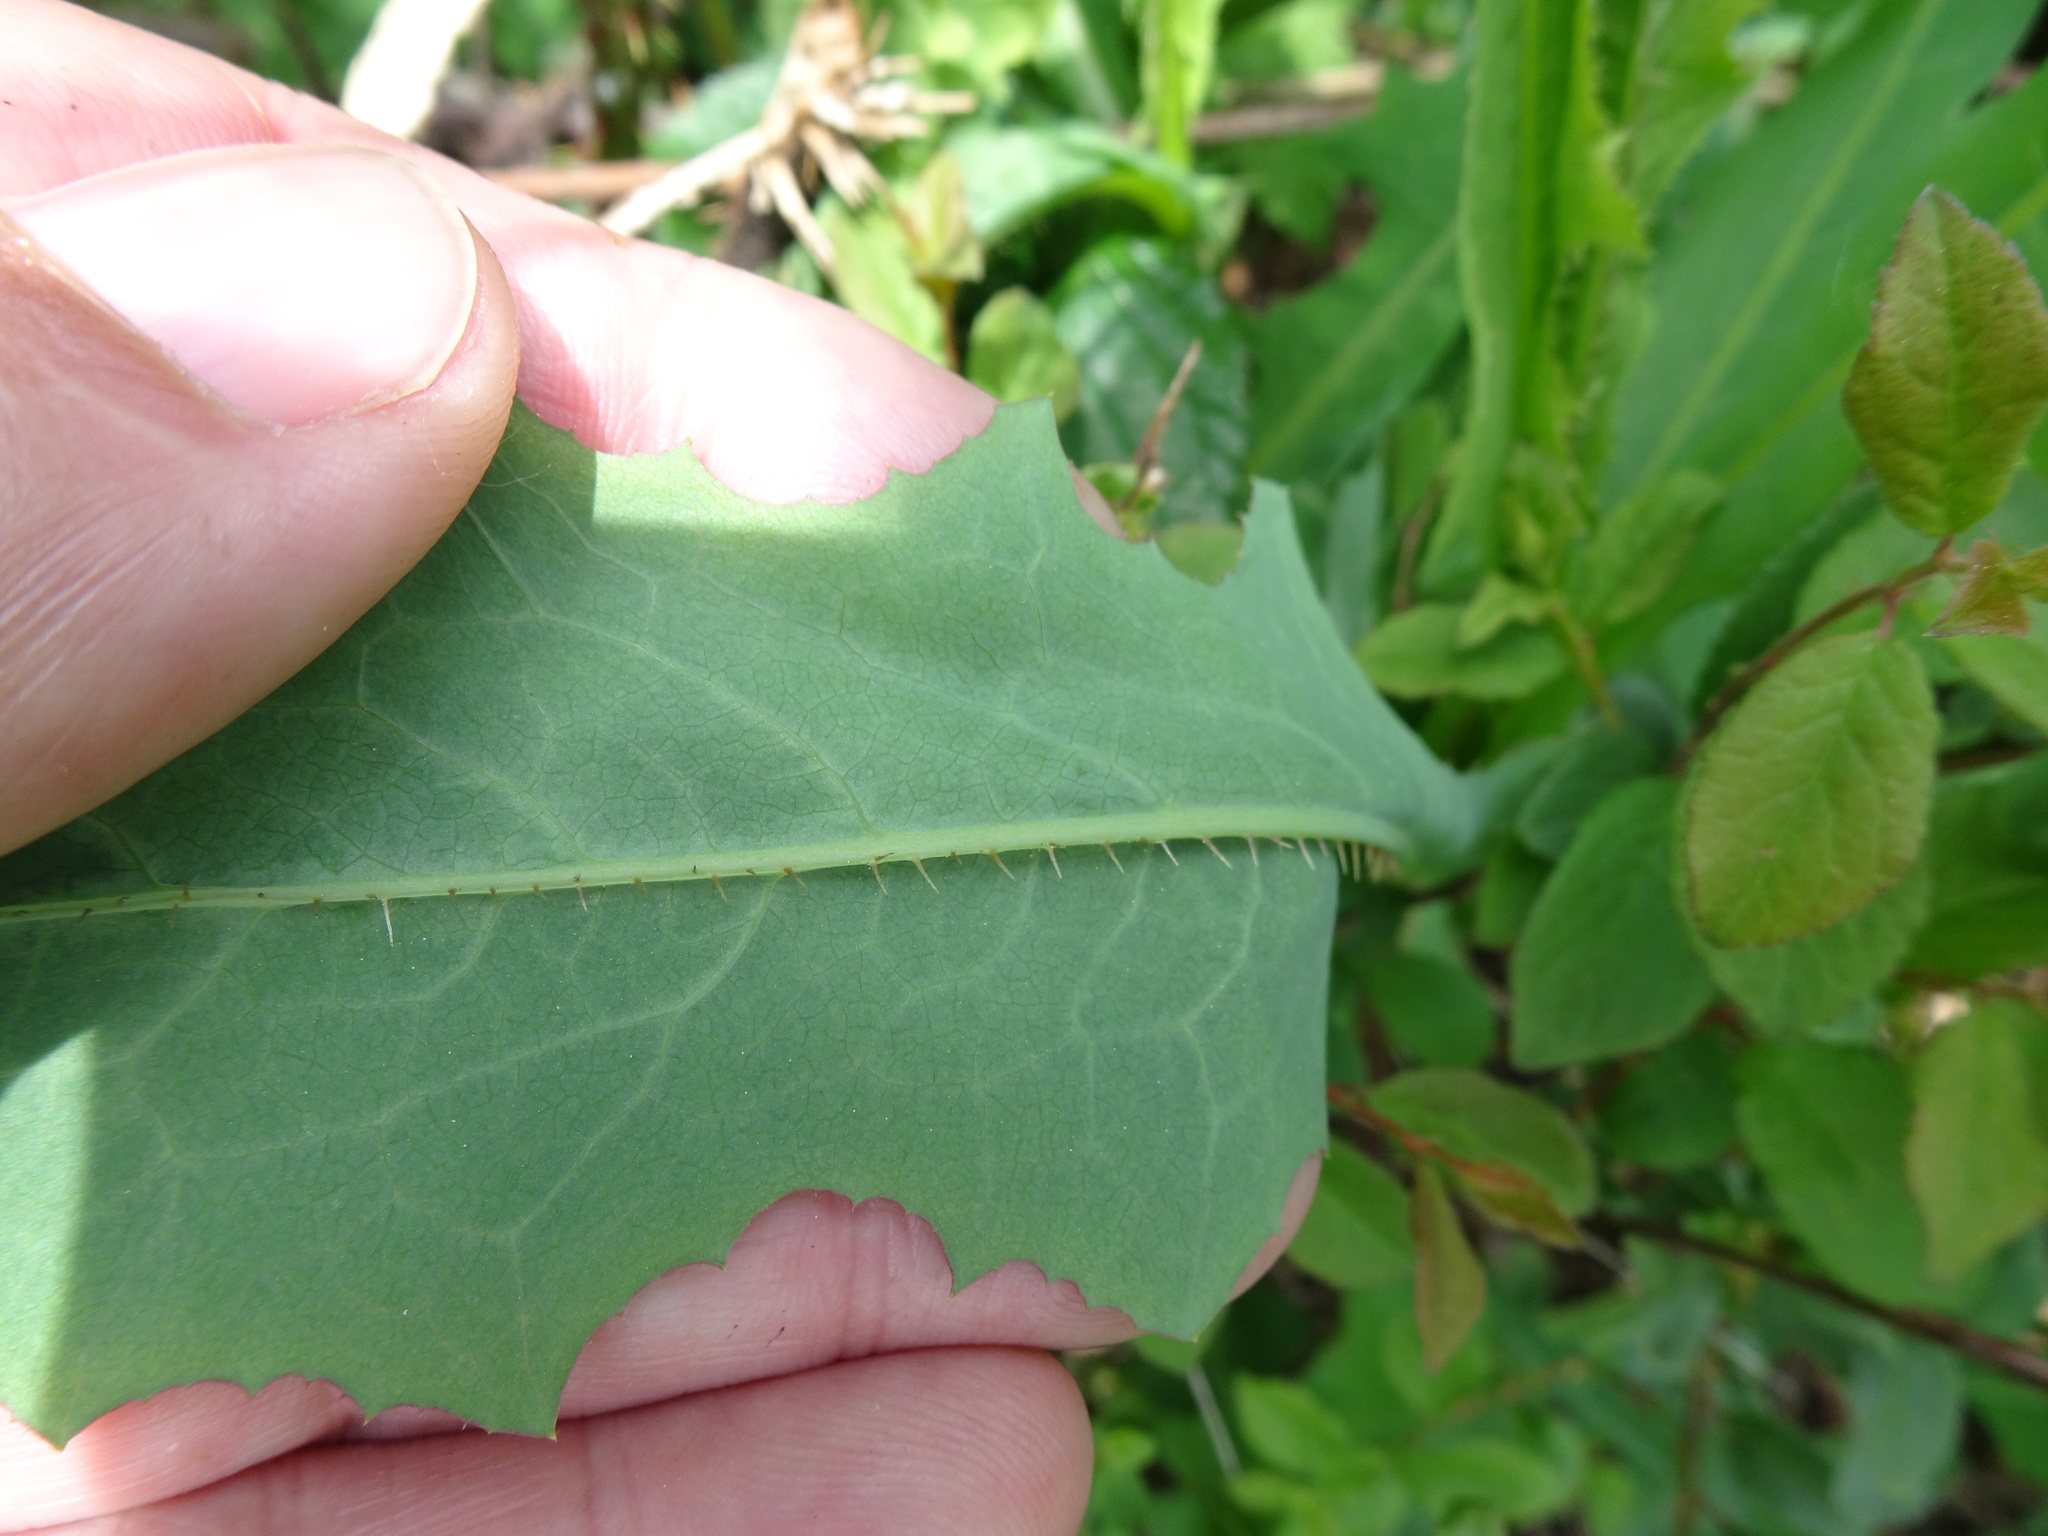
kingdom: Plantae
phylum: Tracheophyta
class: Magnoliopsida
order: Asterales
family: Asteraceae
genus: Lactuca
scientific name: Lactuca serriola
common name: Prickly lettuce
